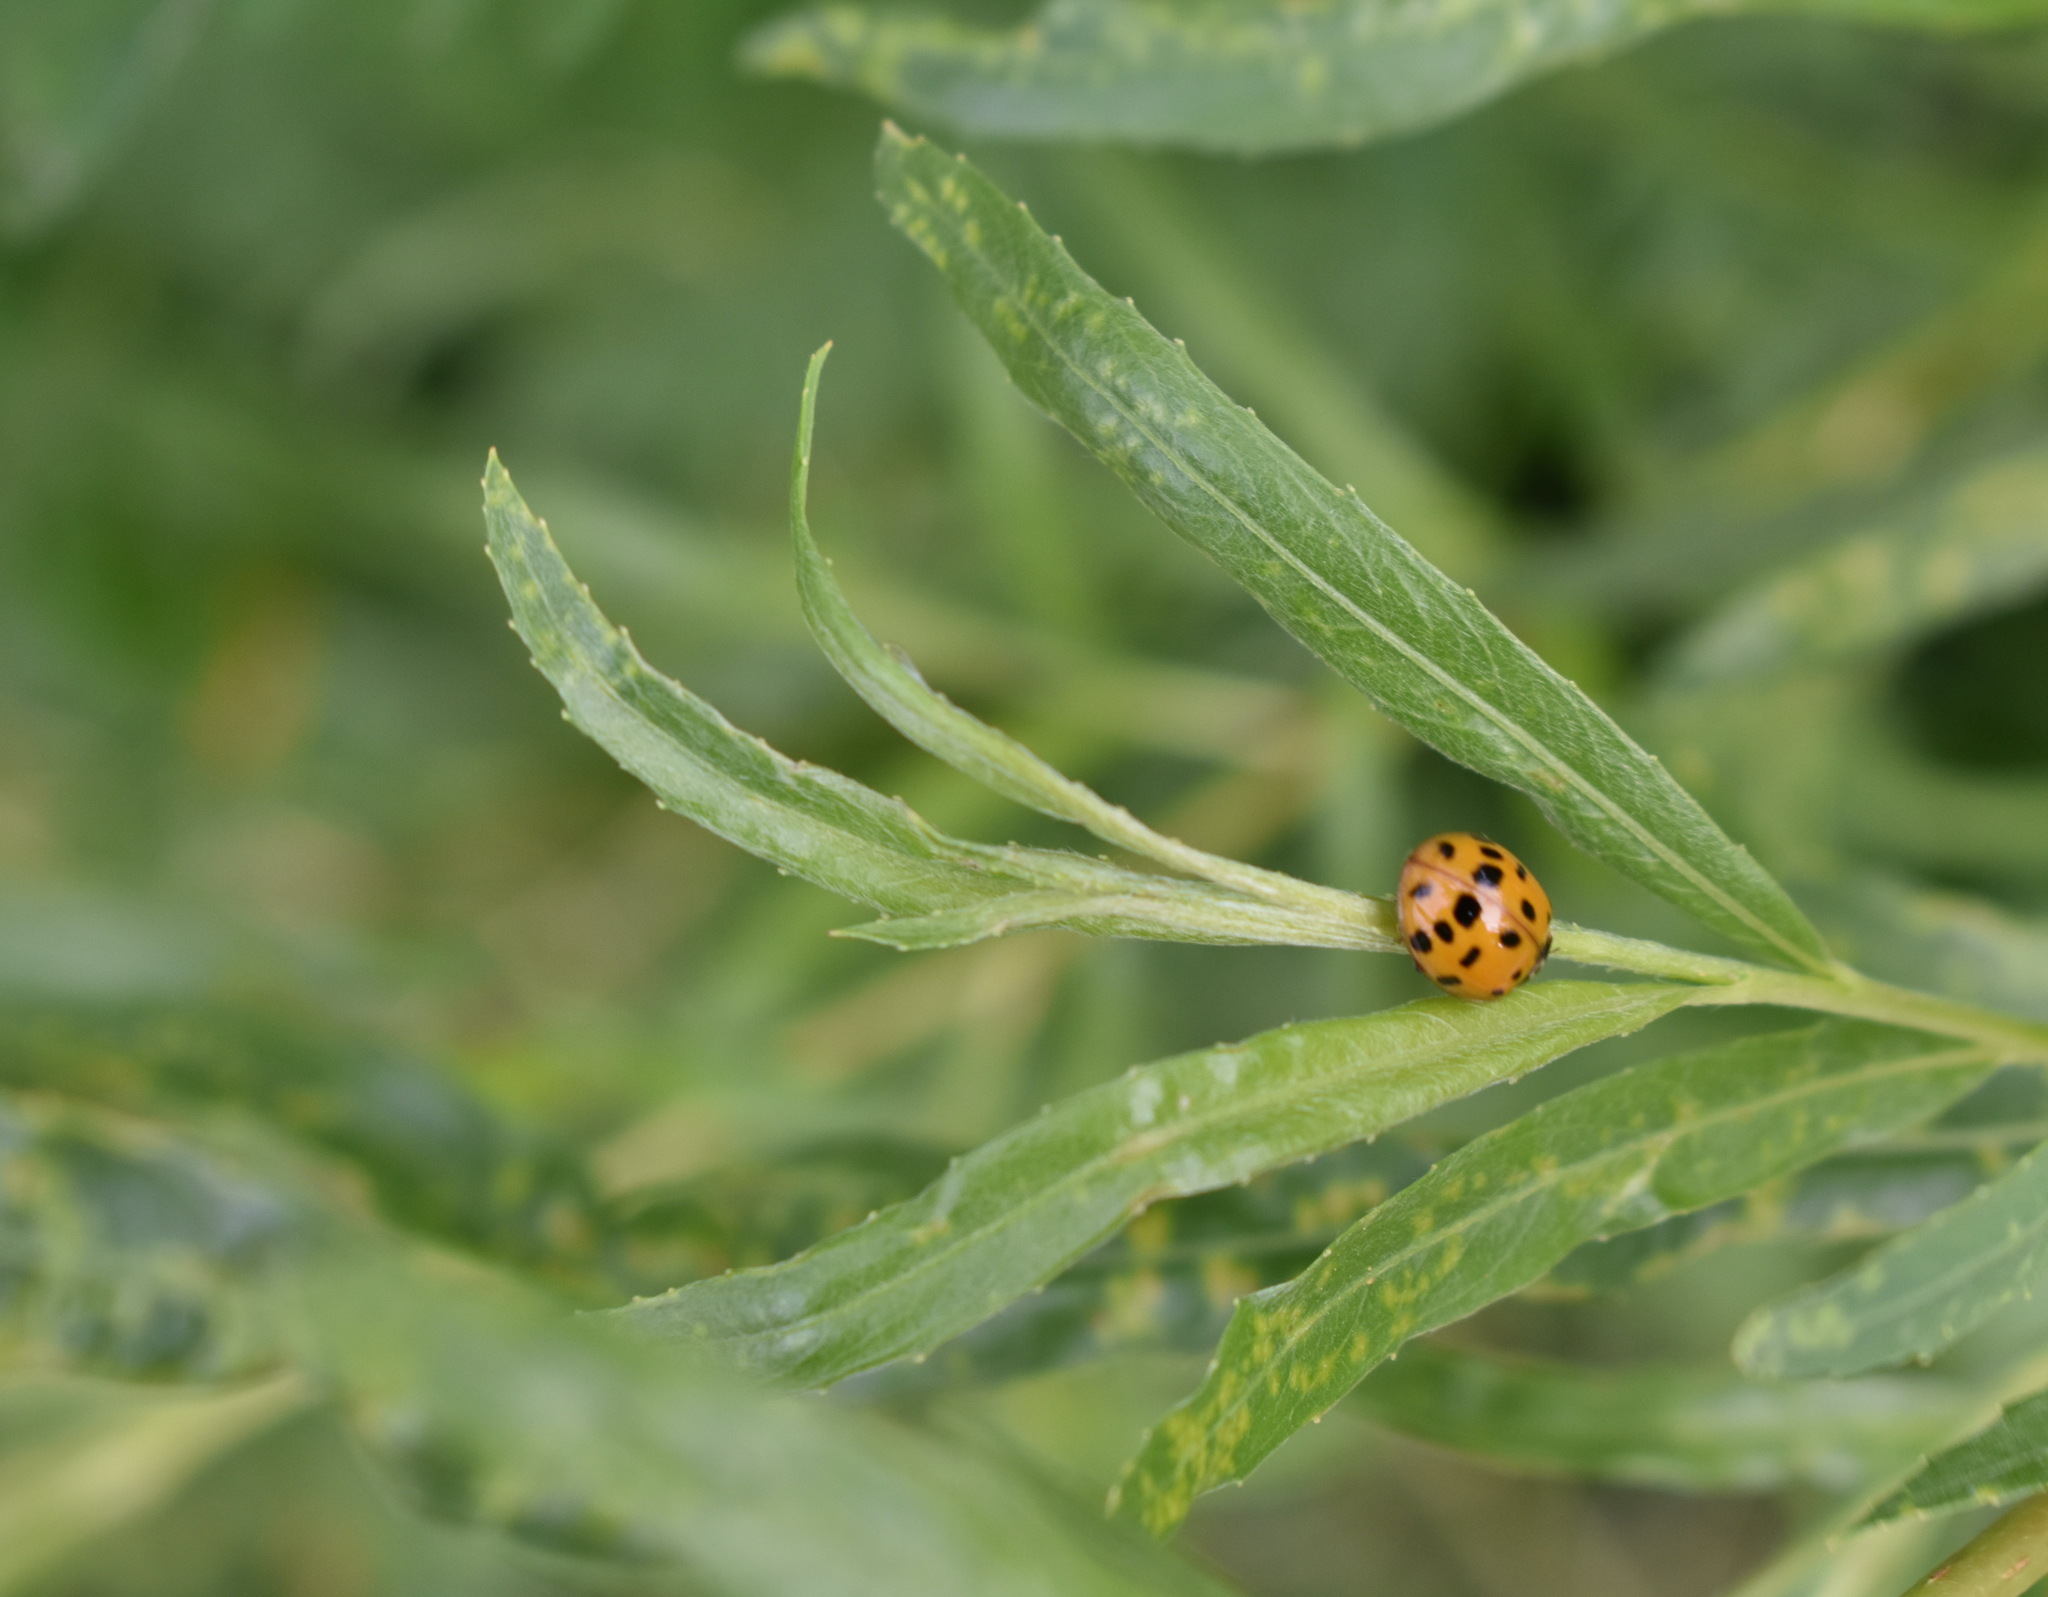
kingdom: Animalia
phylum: Arthropoda
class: Insecta
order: Coleoptera
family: Coccinellidae
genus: Harmonia
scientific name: Harmonia axyridis
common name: Harlequin ladybird
